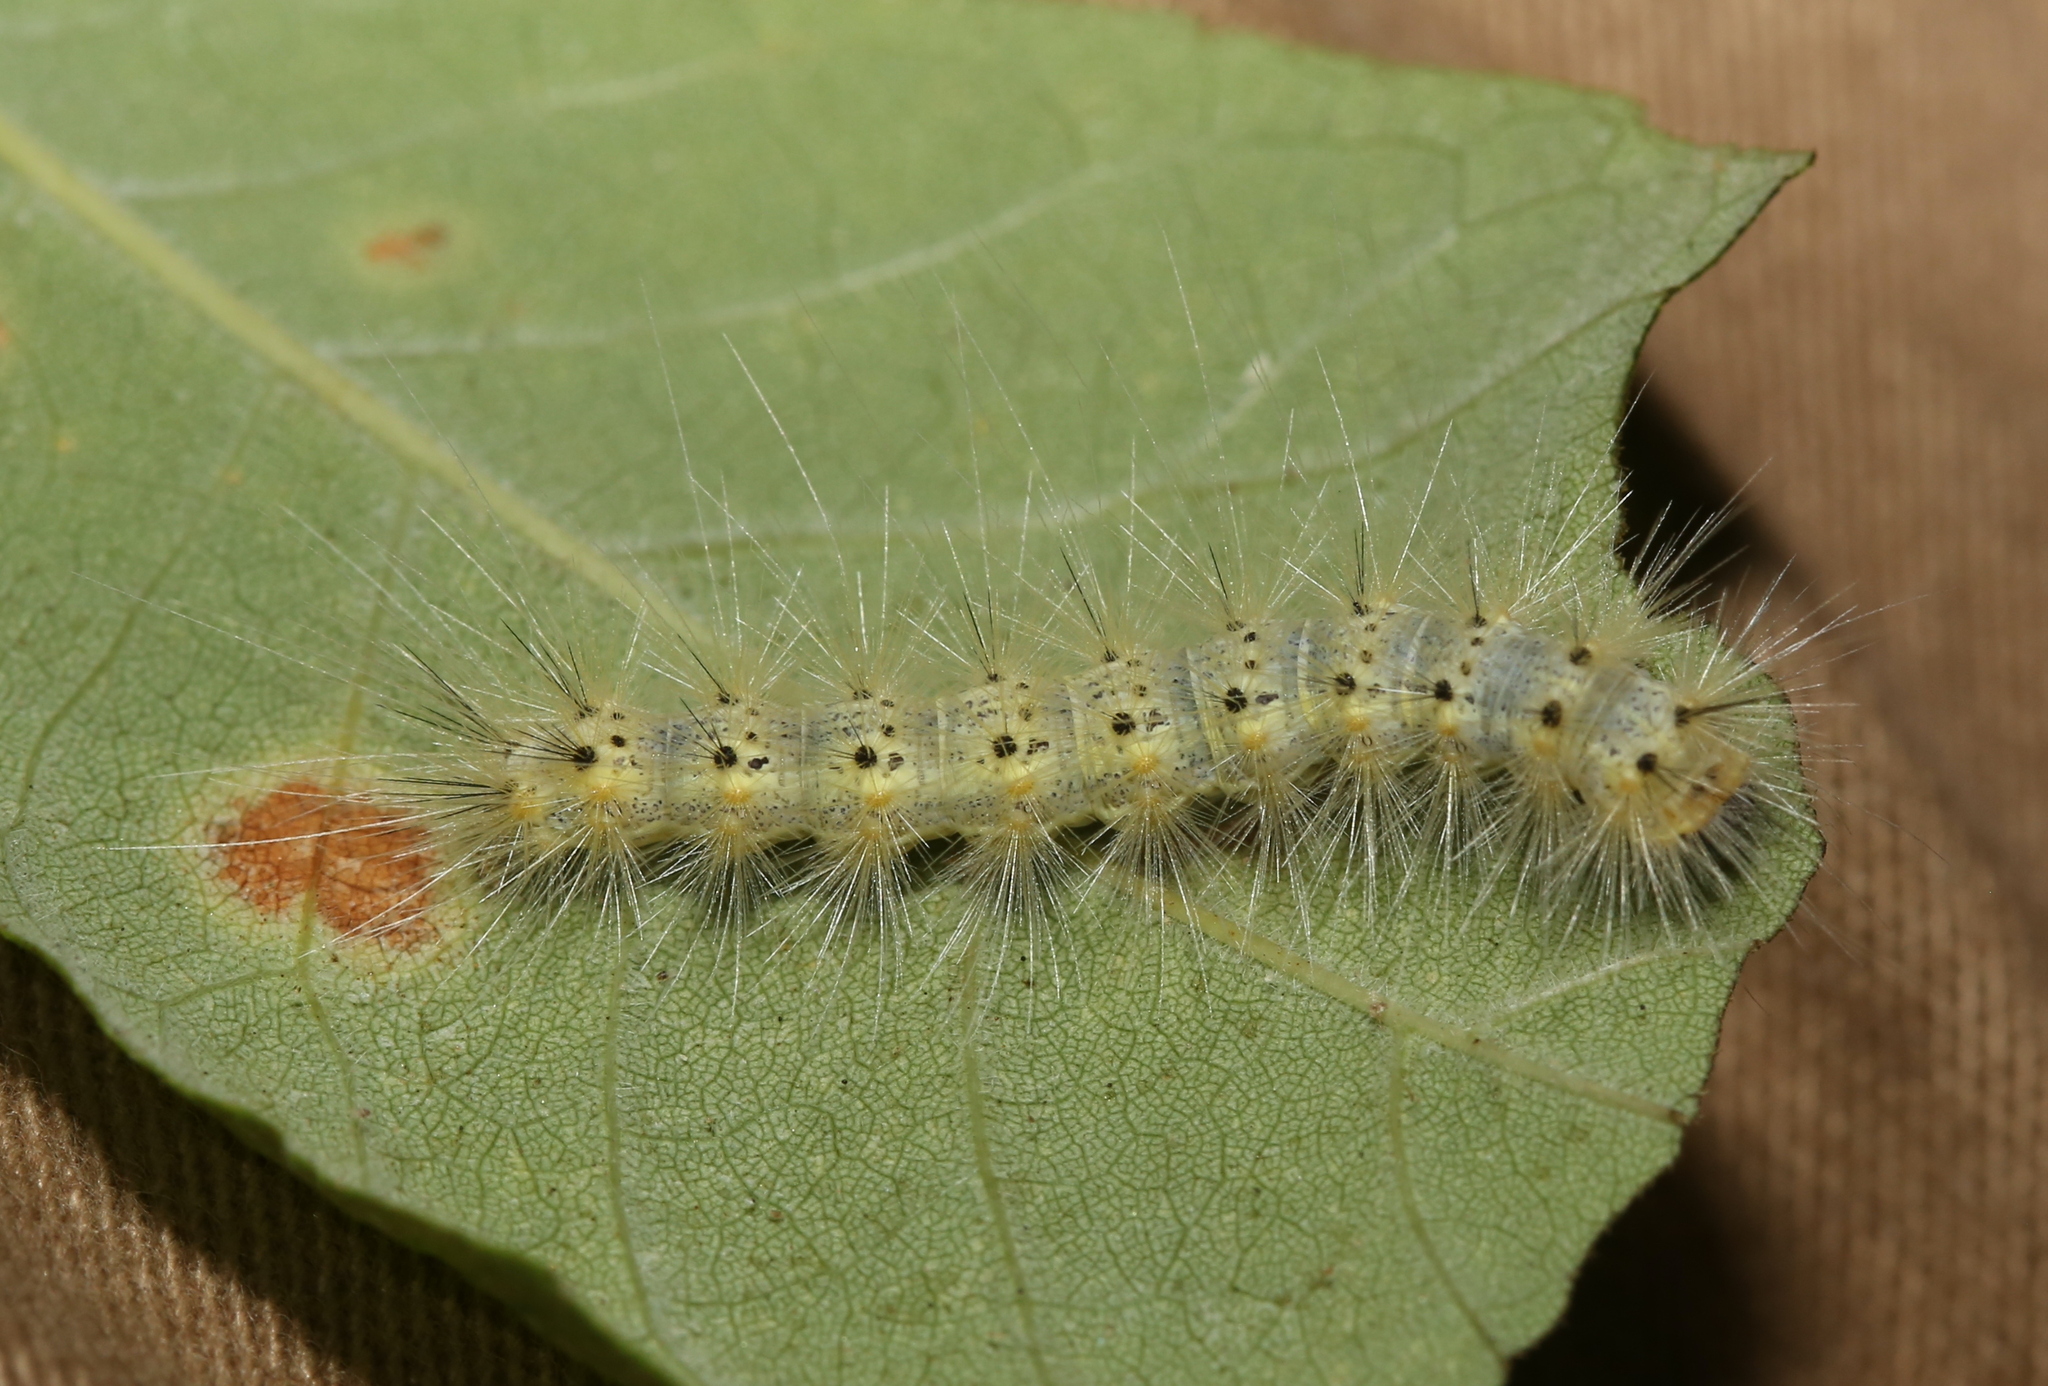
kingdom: Animalia
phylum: Arthropoda
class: Insecta
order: Lepidoptera
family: Erebidae
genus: Hyphantria
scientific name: Hyphantria cunea
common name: American white moth
